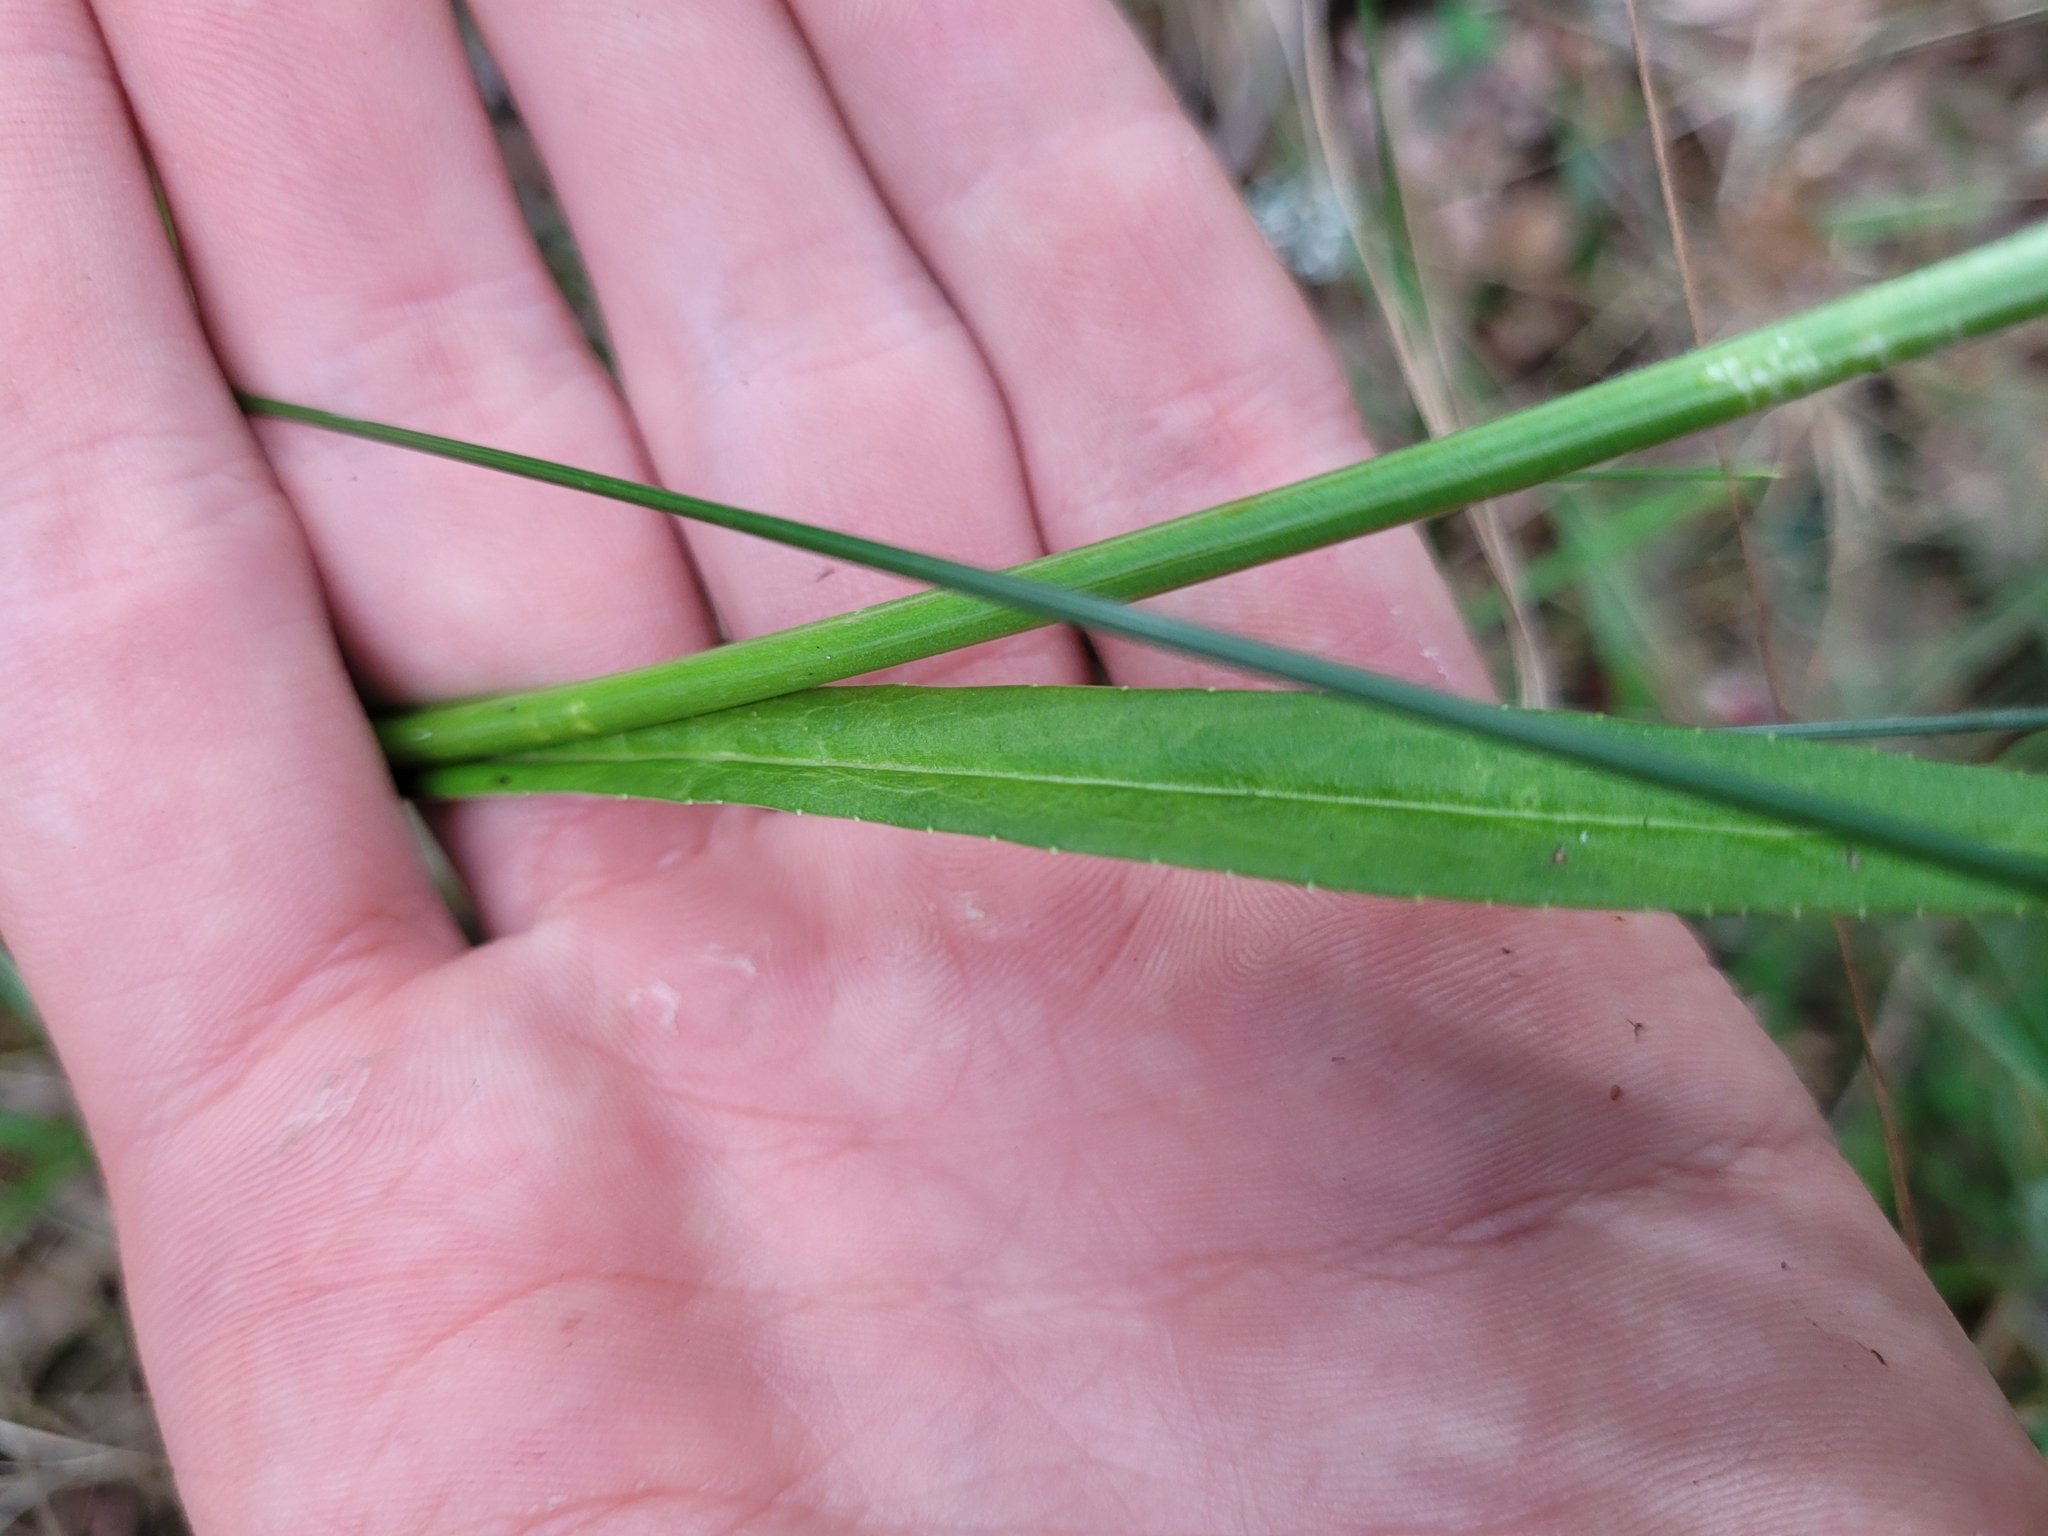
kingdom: Plantae
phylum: Tracheophyta
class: Magnoliopsida
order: Asterales
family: Campanulaceae
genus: Campanula
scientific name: Campanula persicifolia
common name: Peach-leaved bellflower
